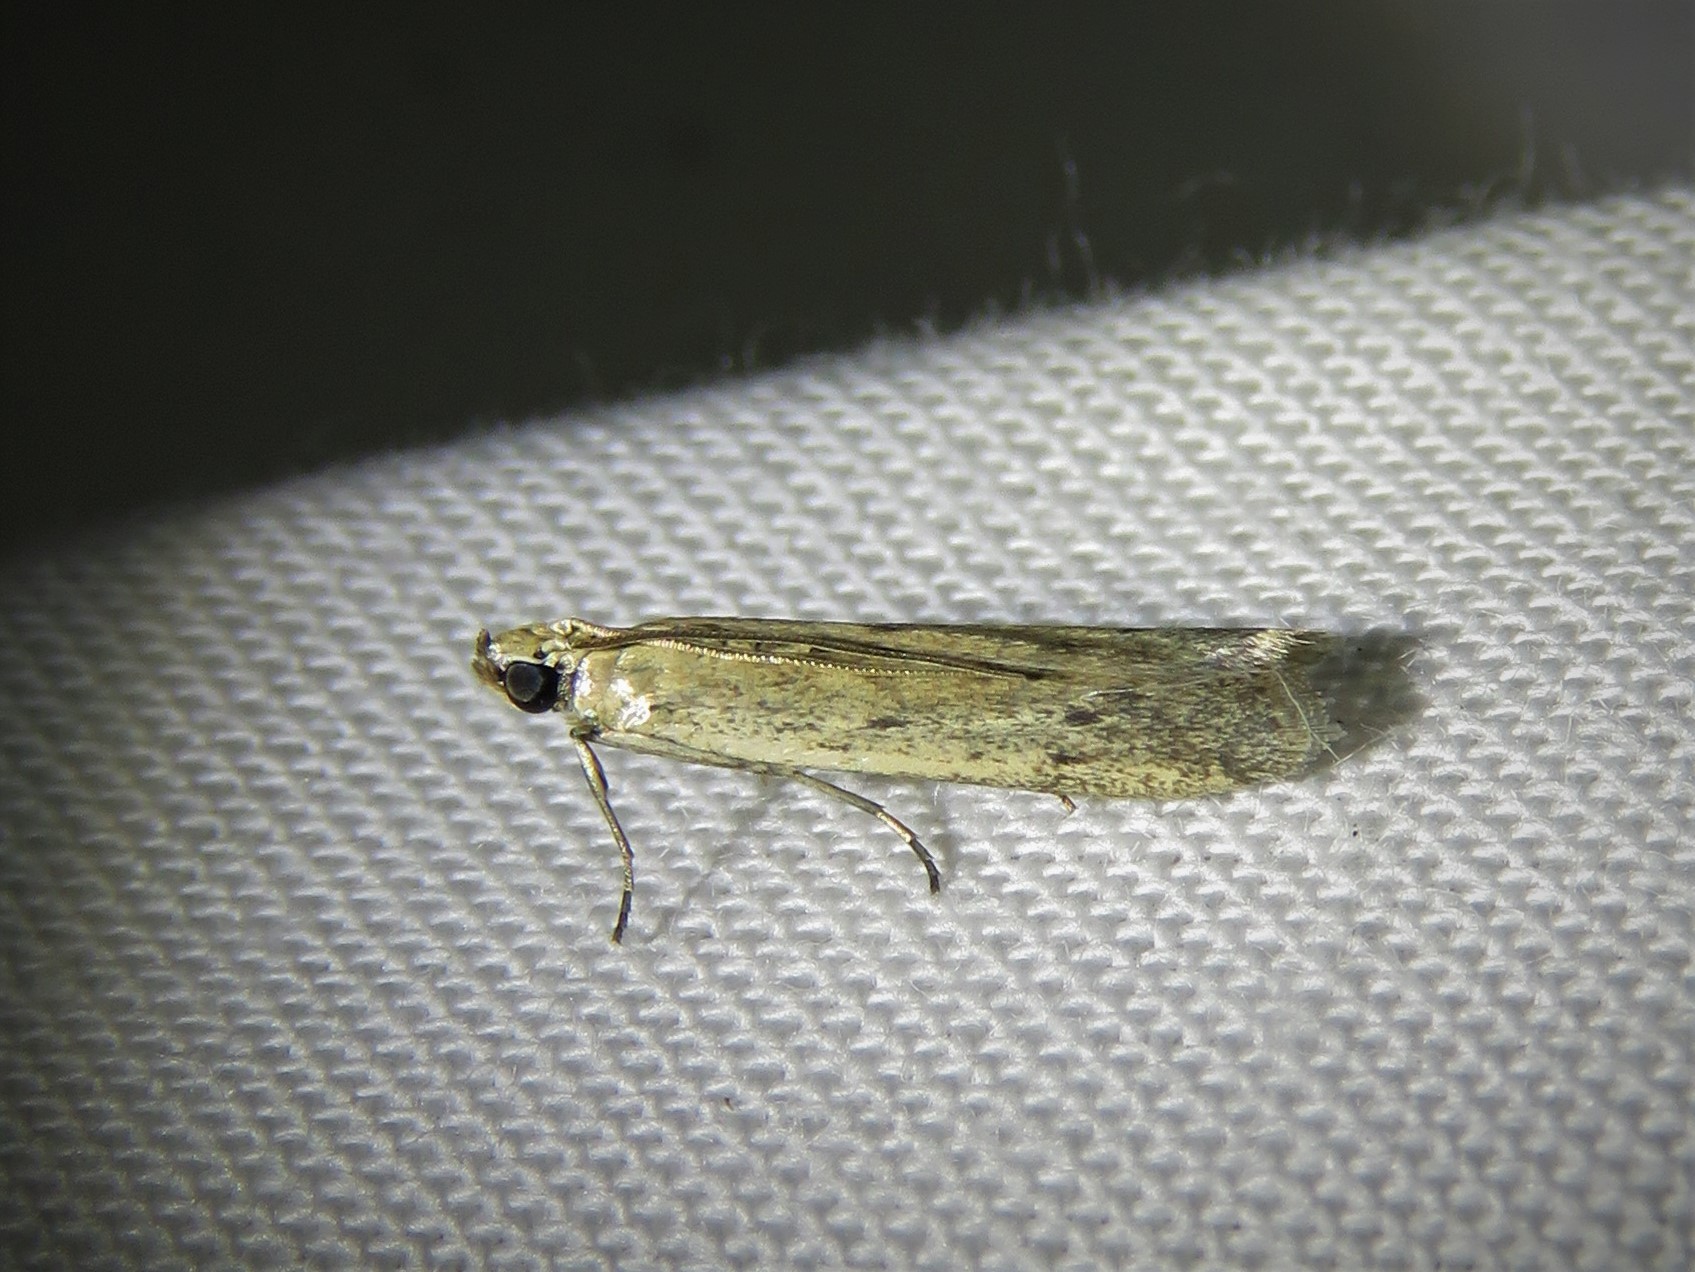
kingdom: Animalia
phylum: Arthropoda
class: Insecta
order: Lepidoptera
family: Pyralidae
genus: Homoeosoma
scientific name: Homoeosoma electella
